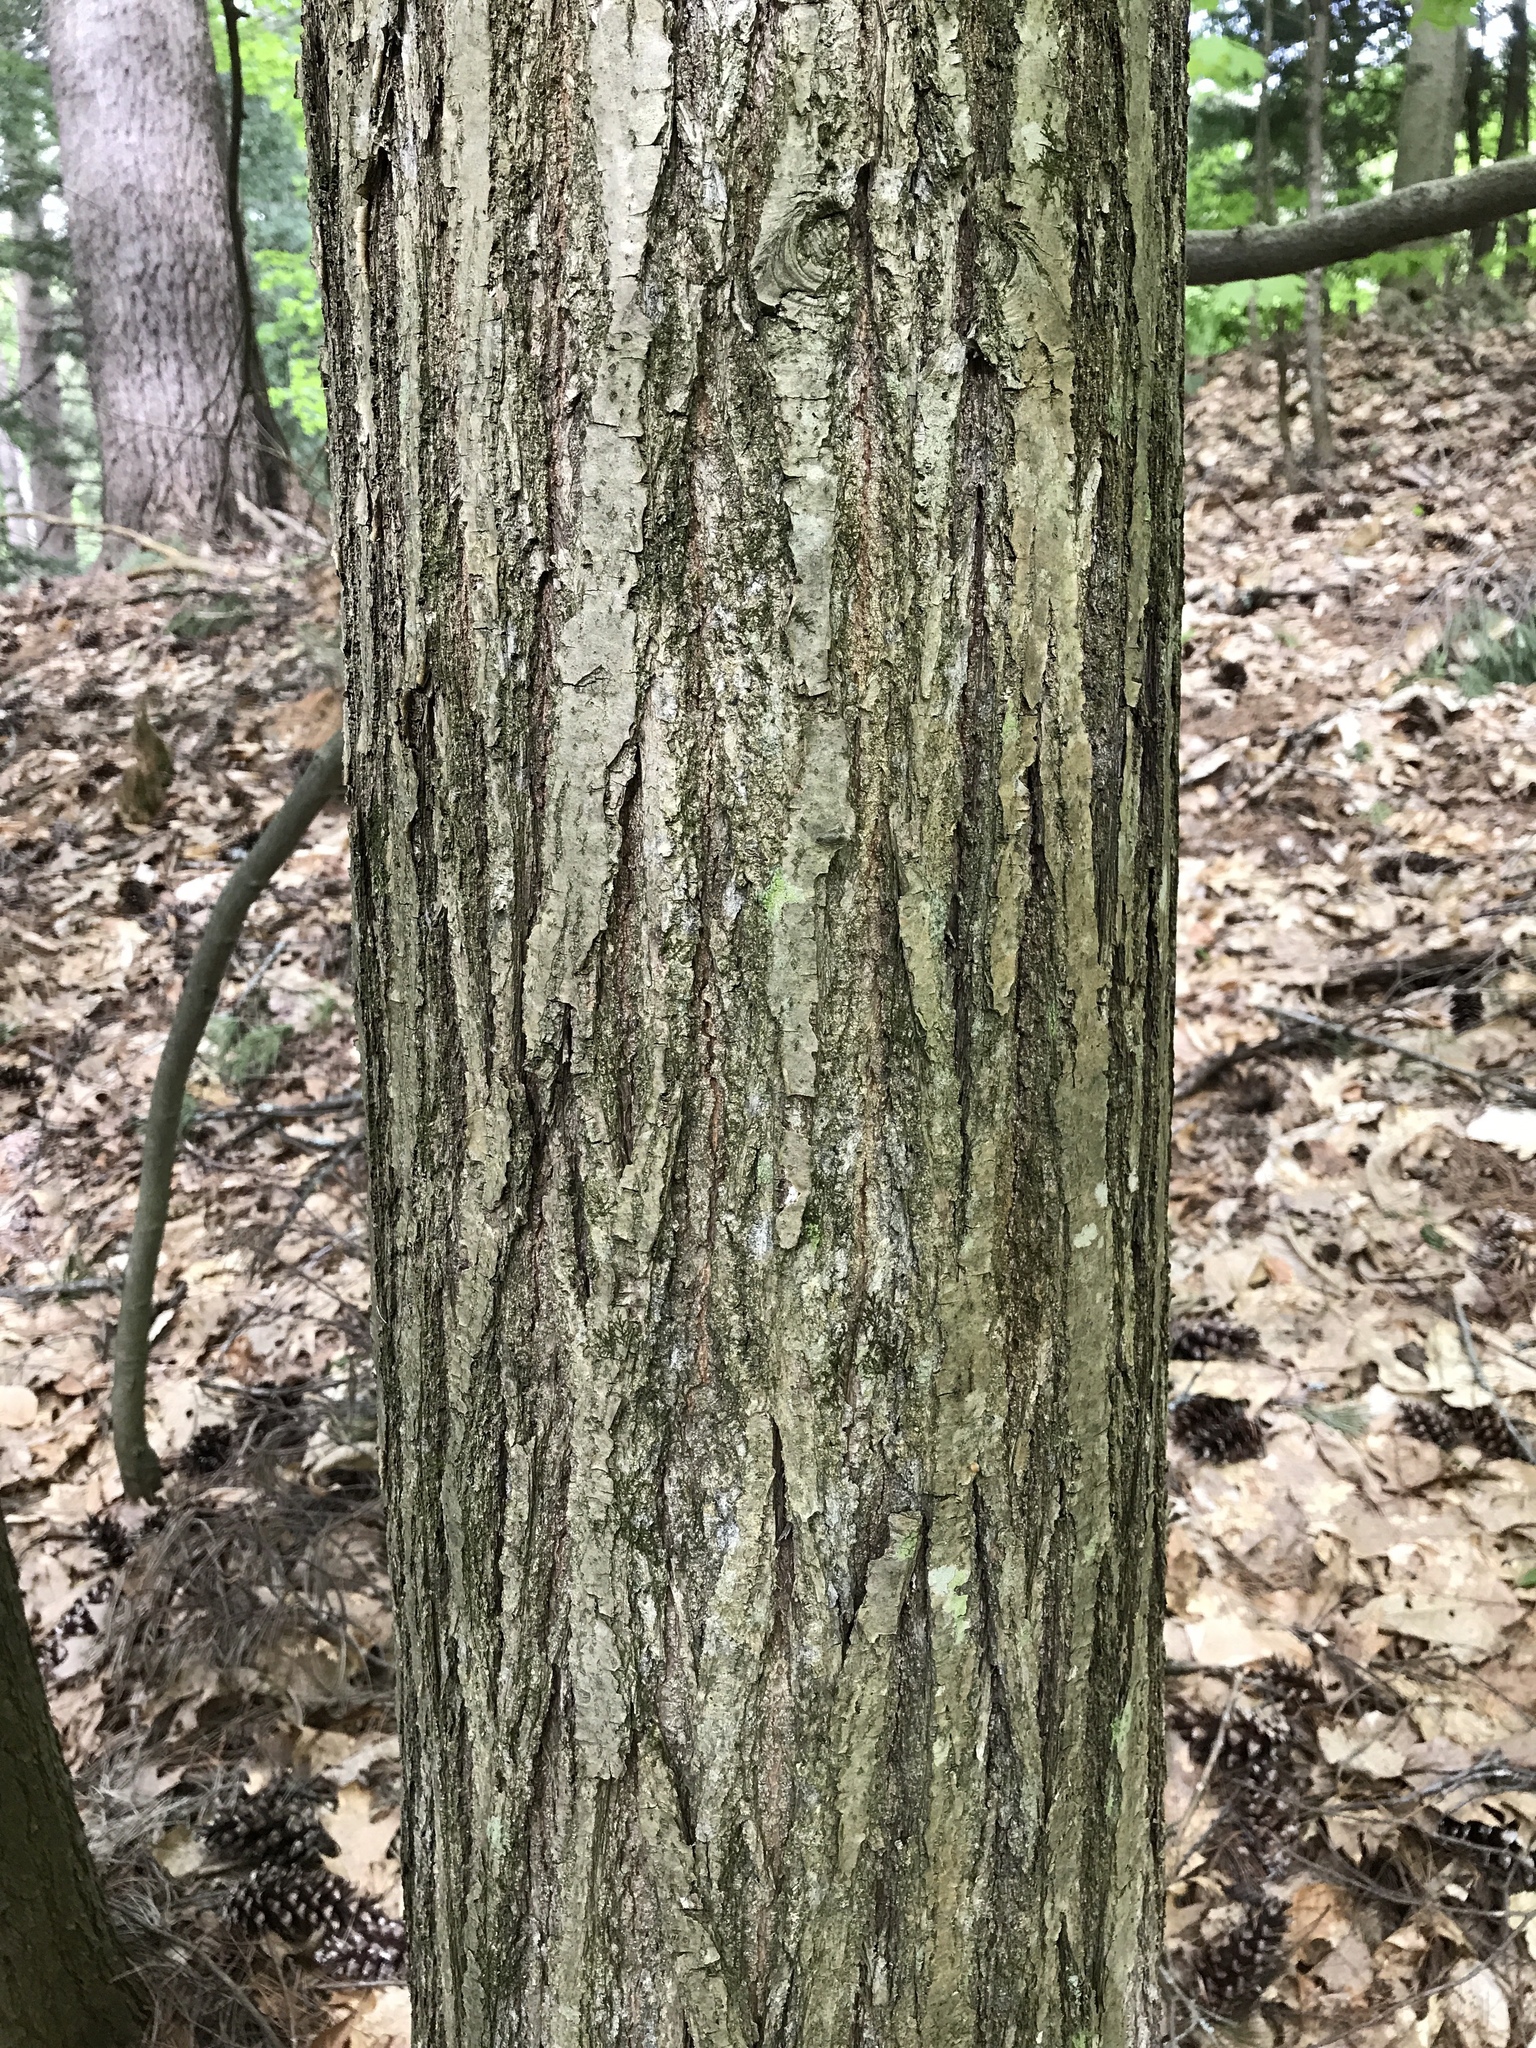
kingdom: Plantae
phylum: Tracheophyta
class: Magnoliopsida
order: Fagales
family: Fagaceae
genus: Castanea
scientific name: Castanea dentata
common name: American chestnut
